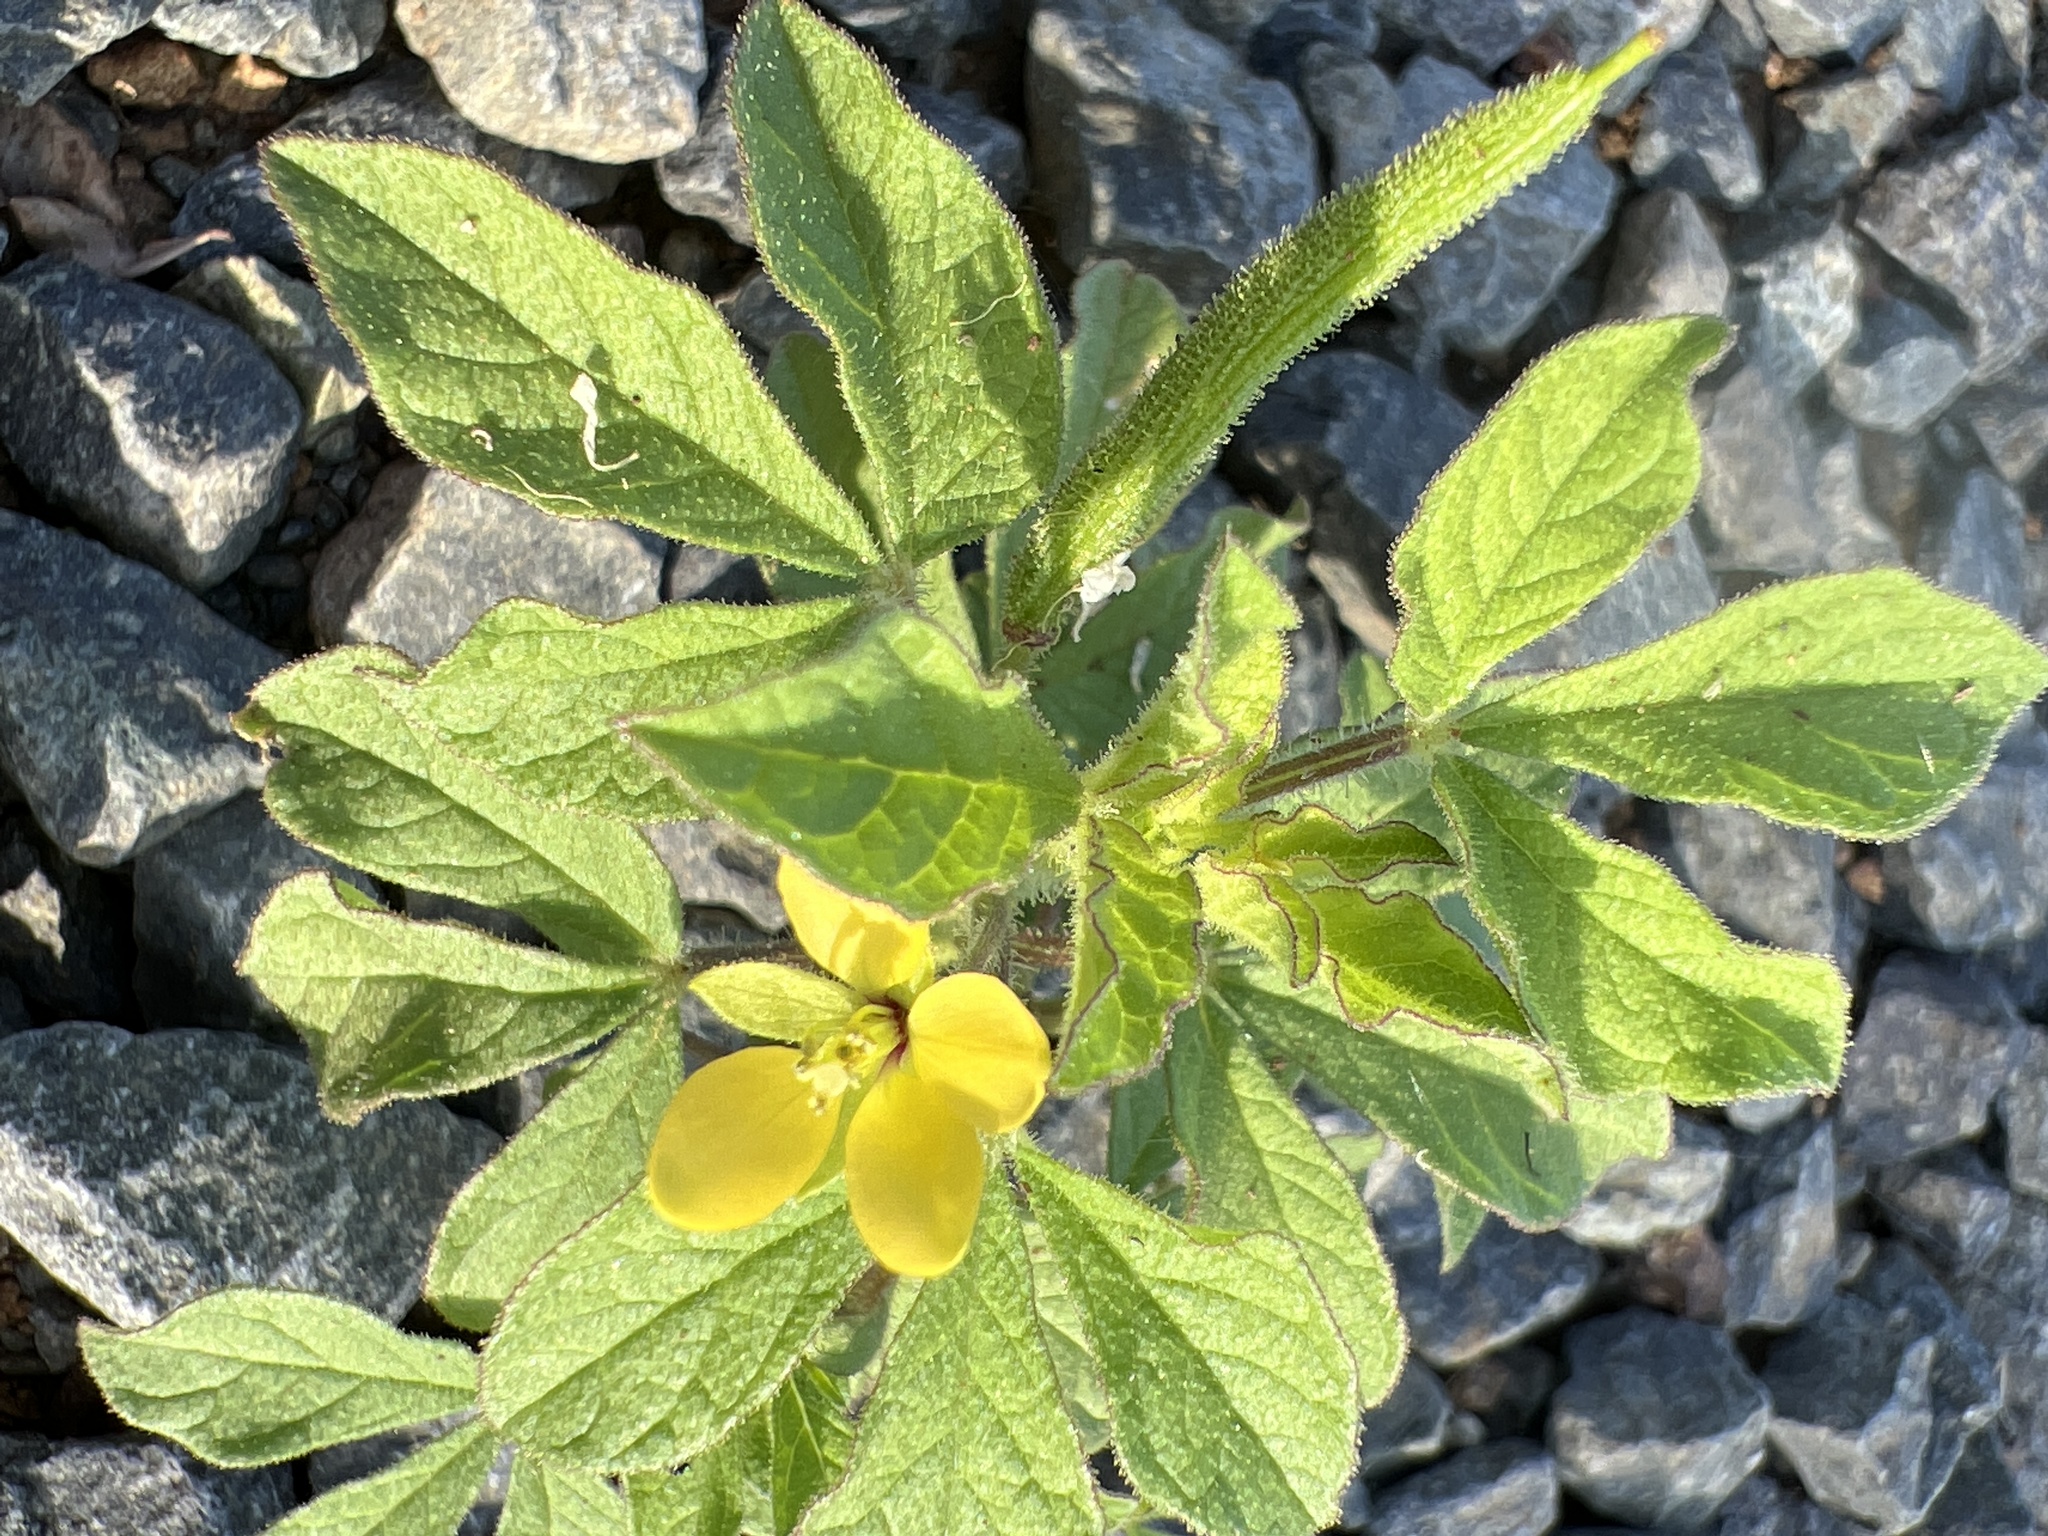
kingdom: Plantae
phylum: Tracheophyta
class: Magnoliopsida
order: Brassicales
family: Cleomaceae
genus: Arivela
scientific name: Arivela viscosa
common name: Asian spiderflower
